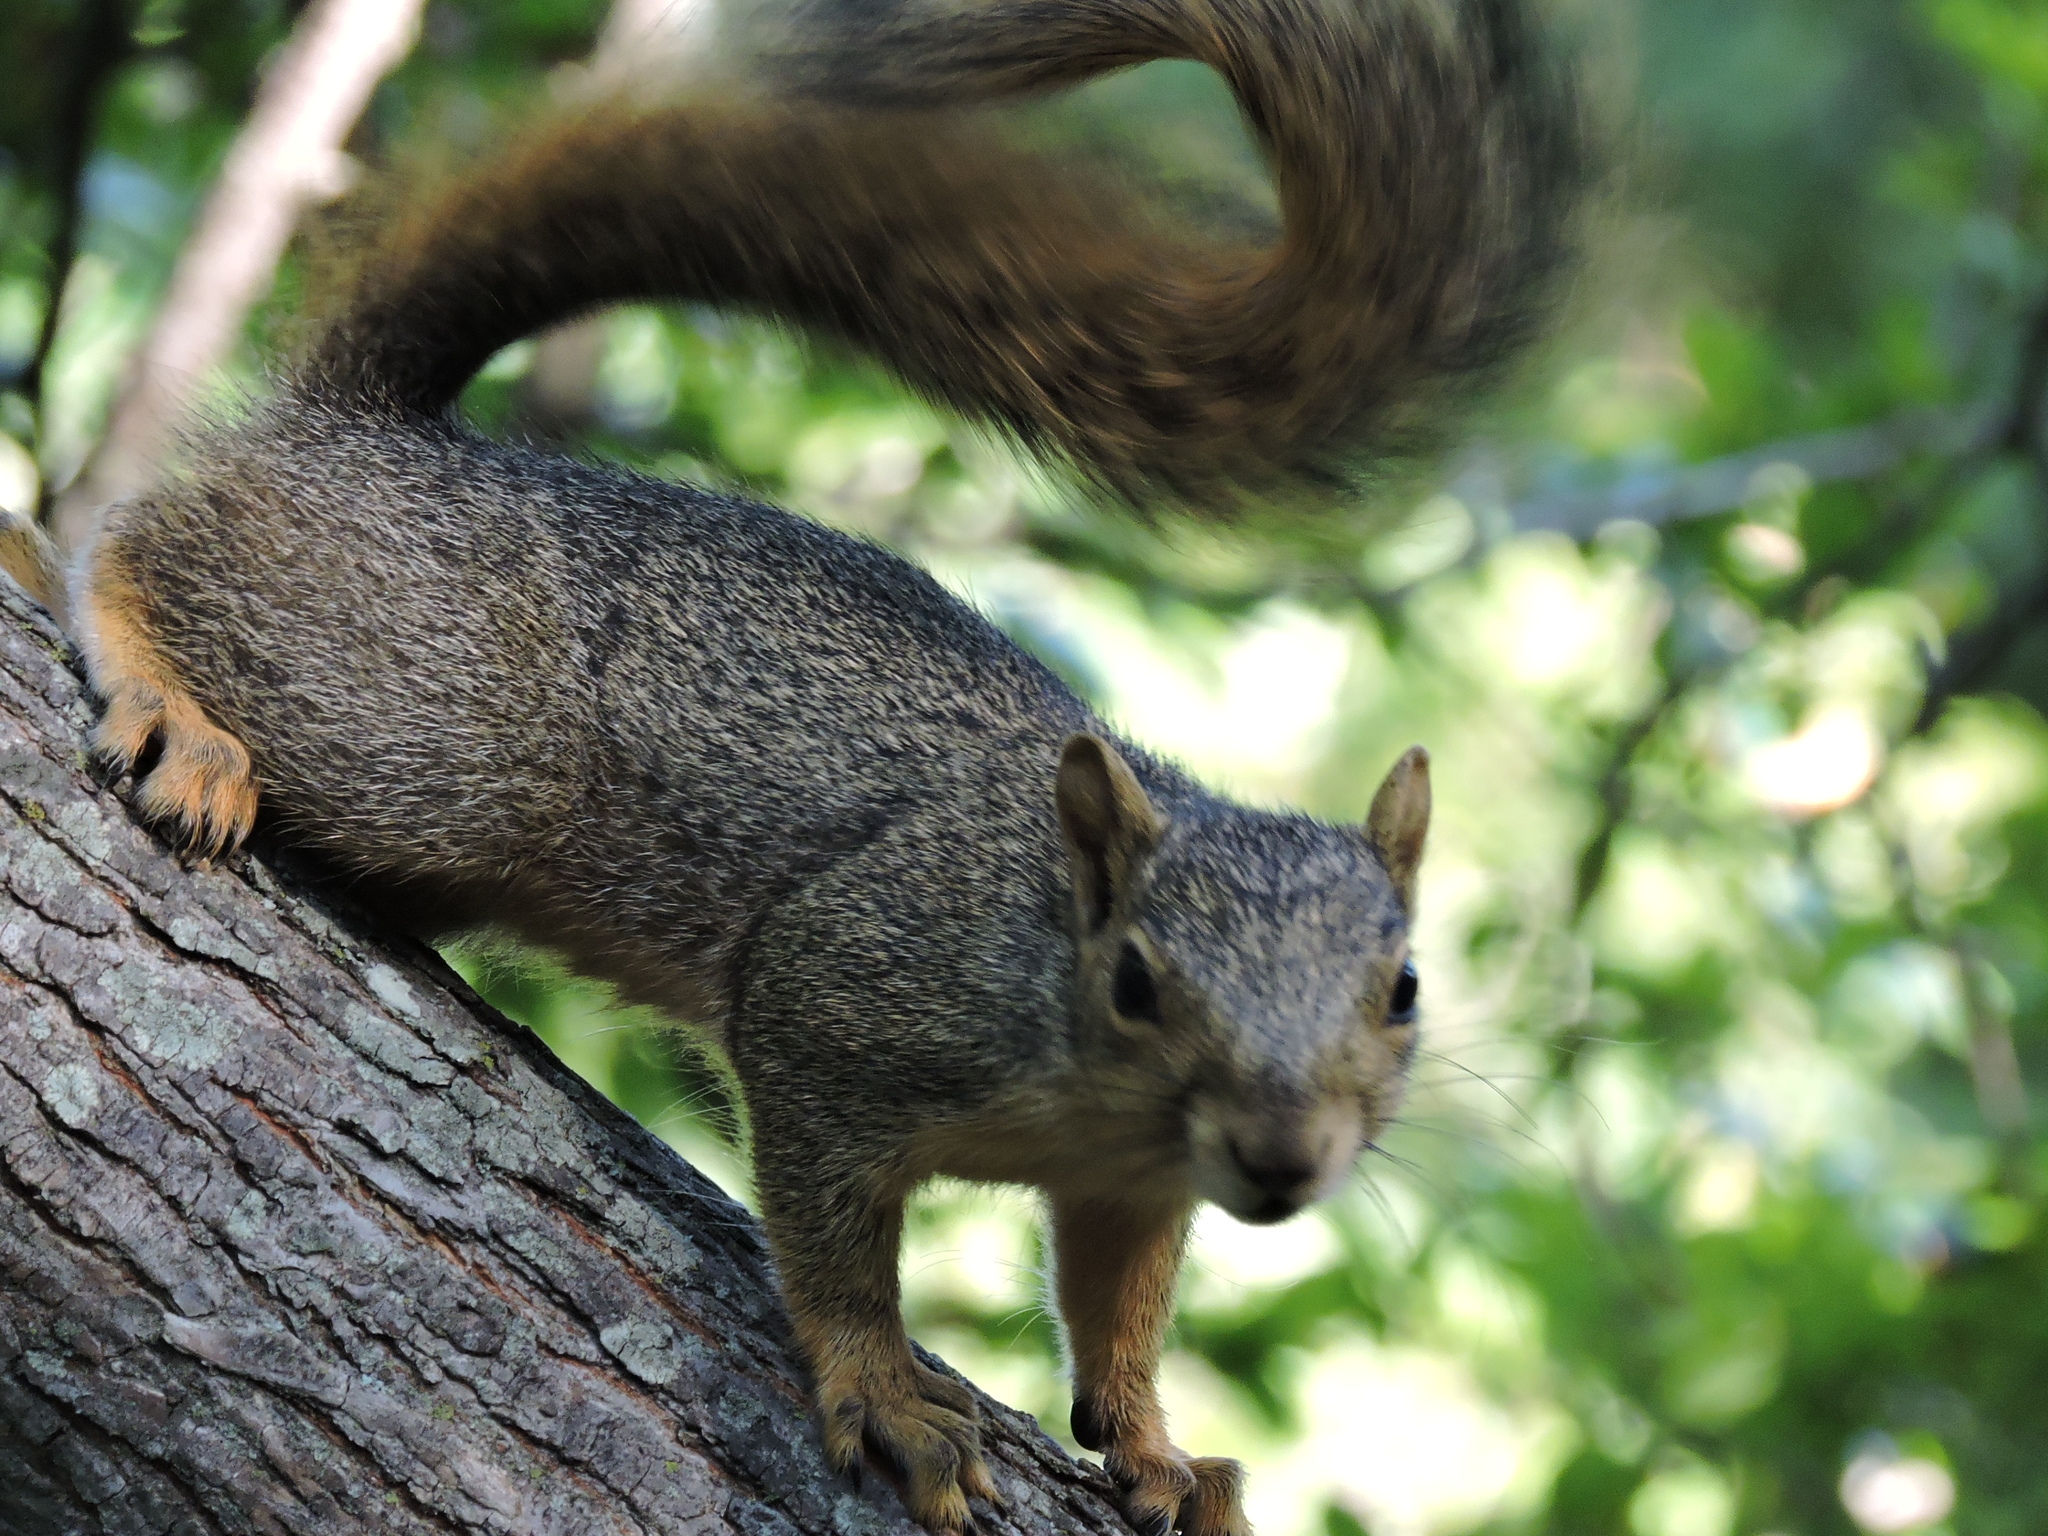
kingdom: Animalia
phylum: Chordata
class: Mammalia
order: Rodentia
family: Sciuridae
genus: Sciurus
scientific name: Sciurus niger
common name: Fox squirrel
